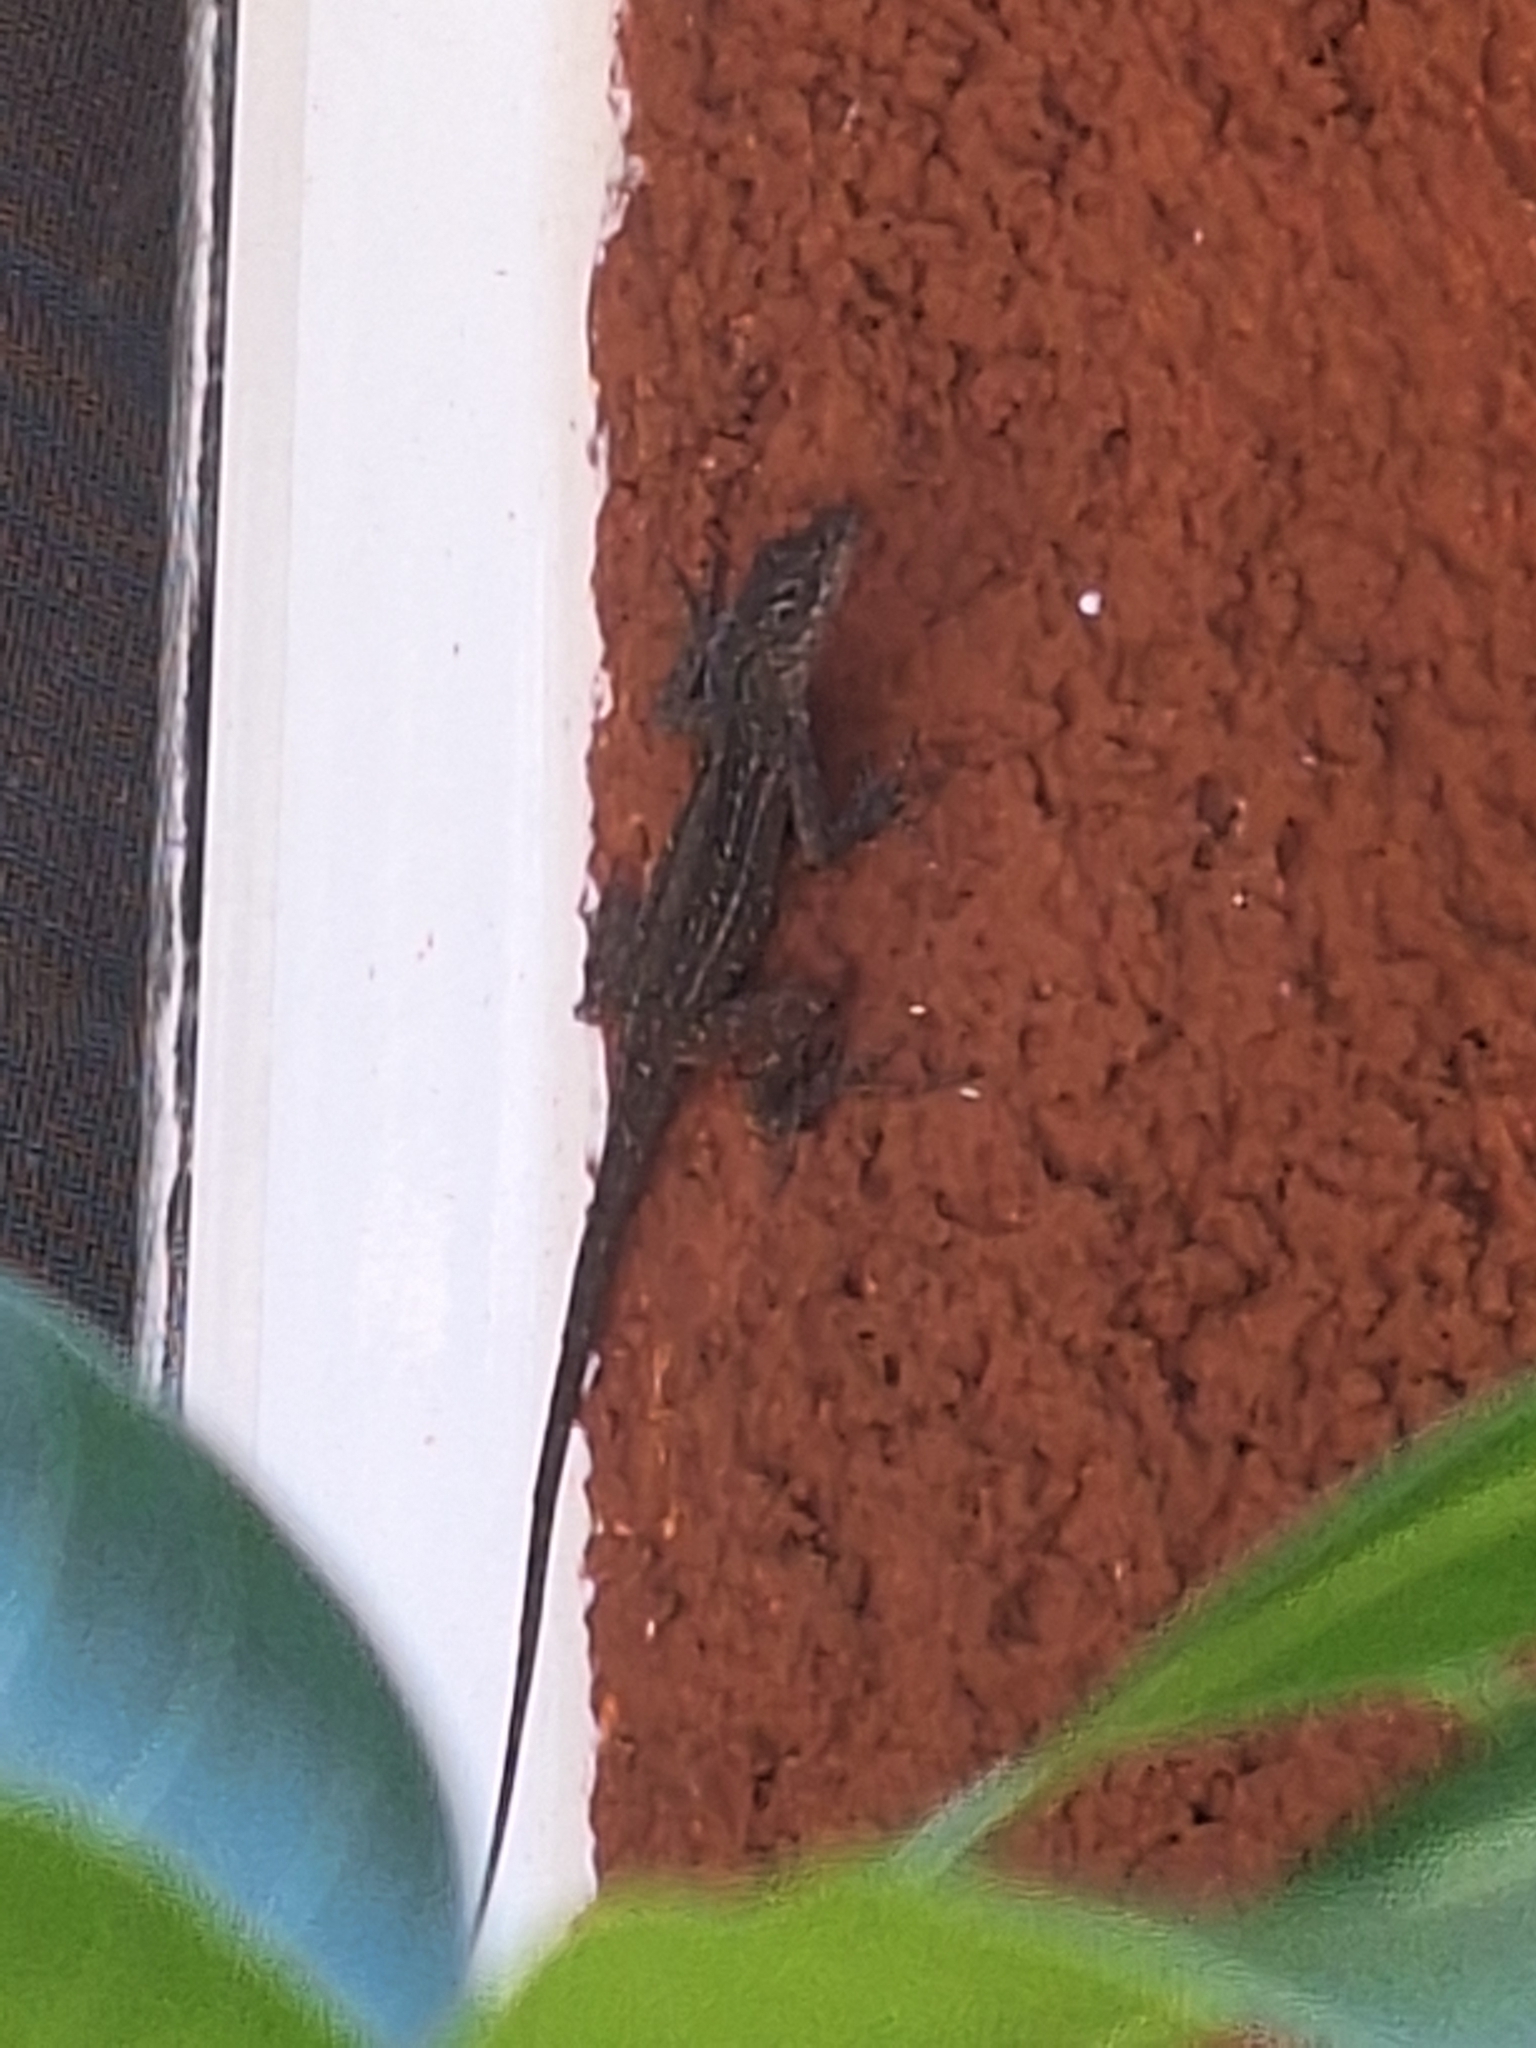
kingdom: Animalia
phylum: Chordata
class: Squamata
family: Dactyloidae
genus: Anolis
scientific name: Anolis sagrei
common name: Brown anole
